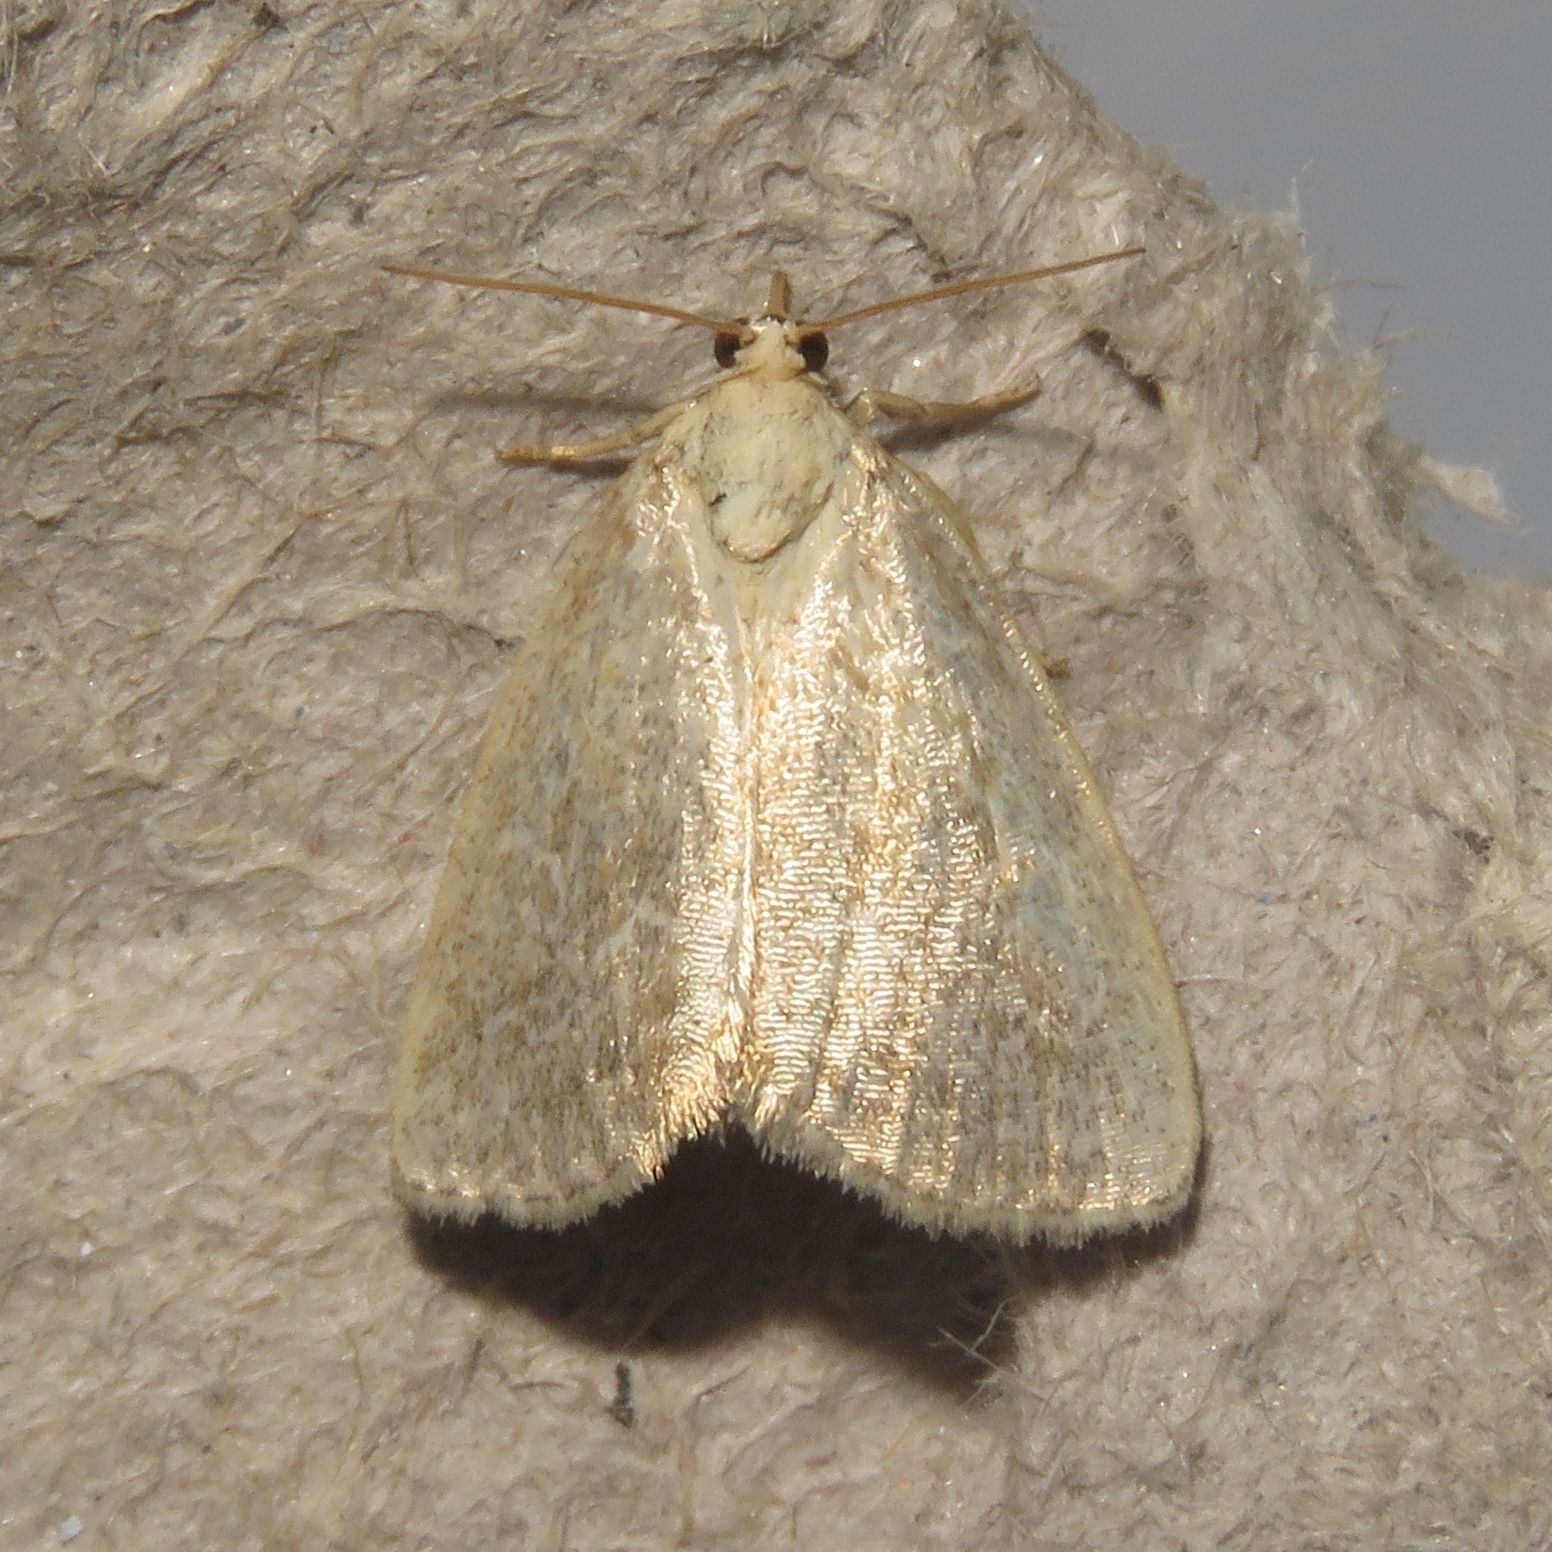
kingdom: Animalia
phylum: Arthropoda
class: Insecta
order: Lepidoptera
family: Noctuidae
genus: Protodeltote
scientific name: Protodeltote albidula
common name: Pale glyph
